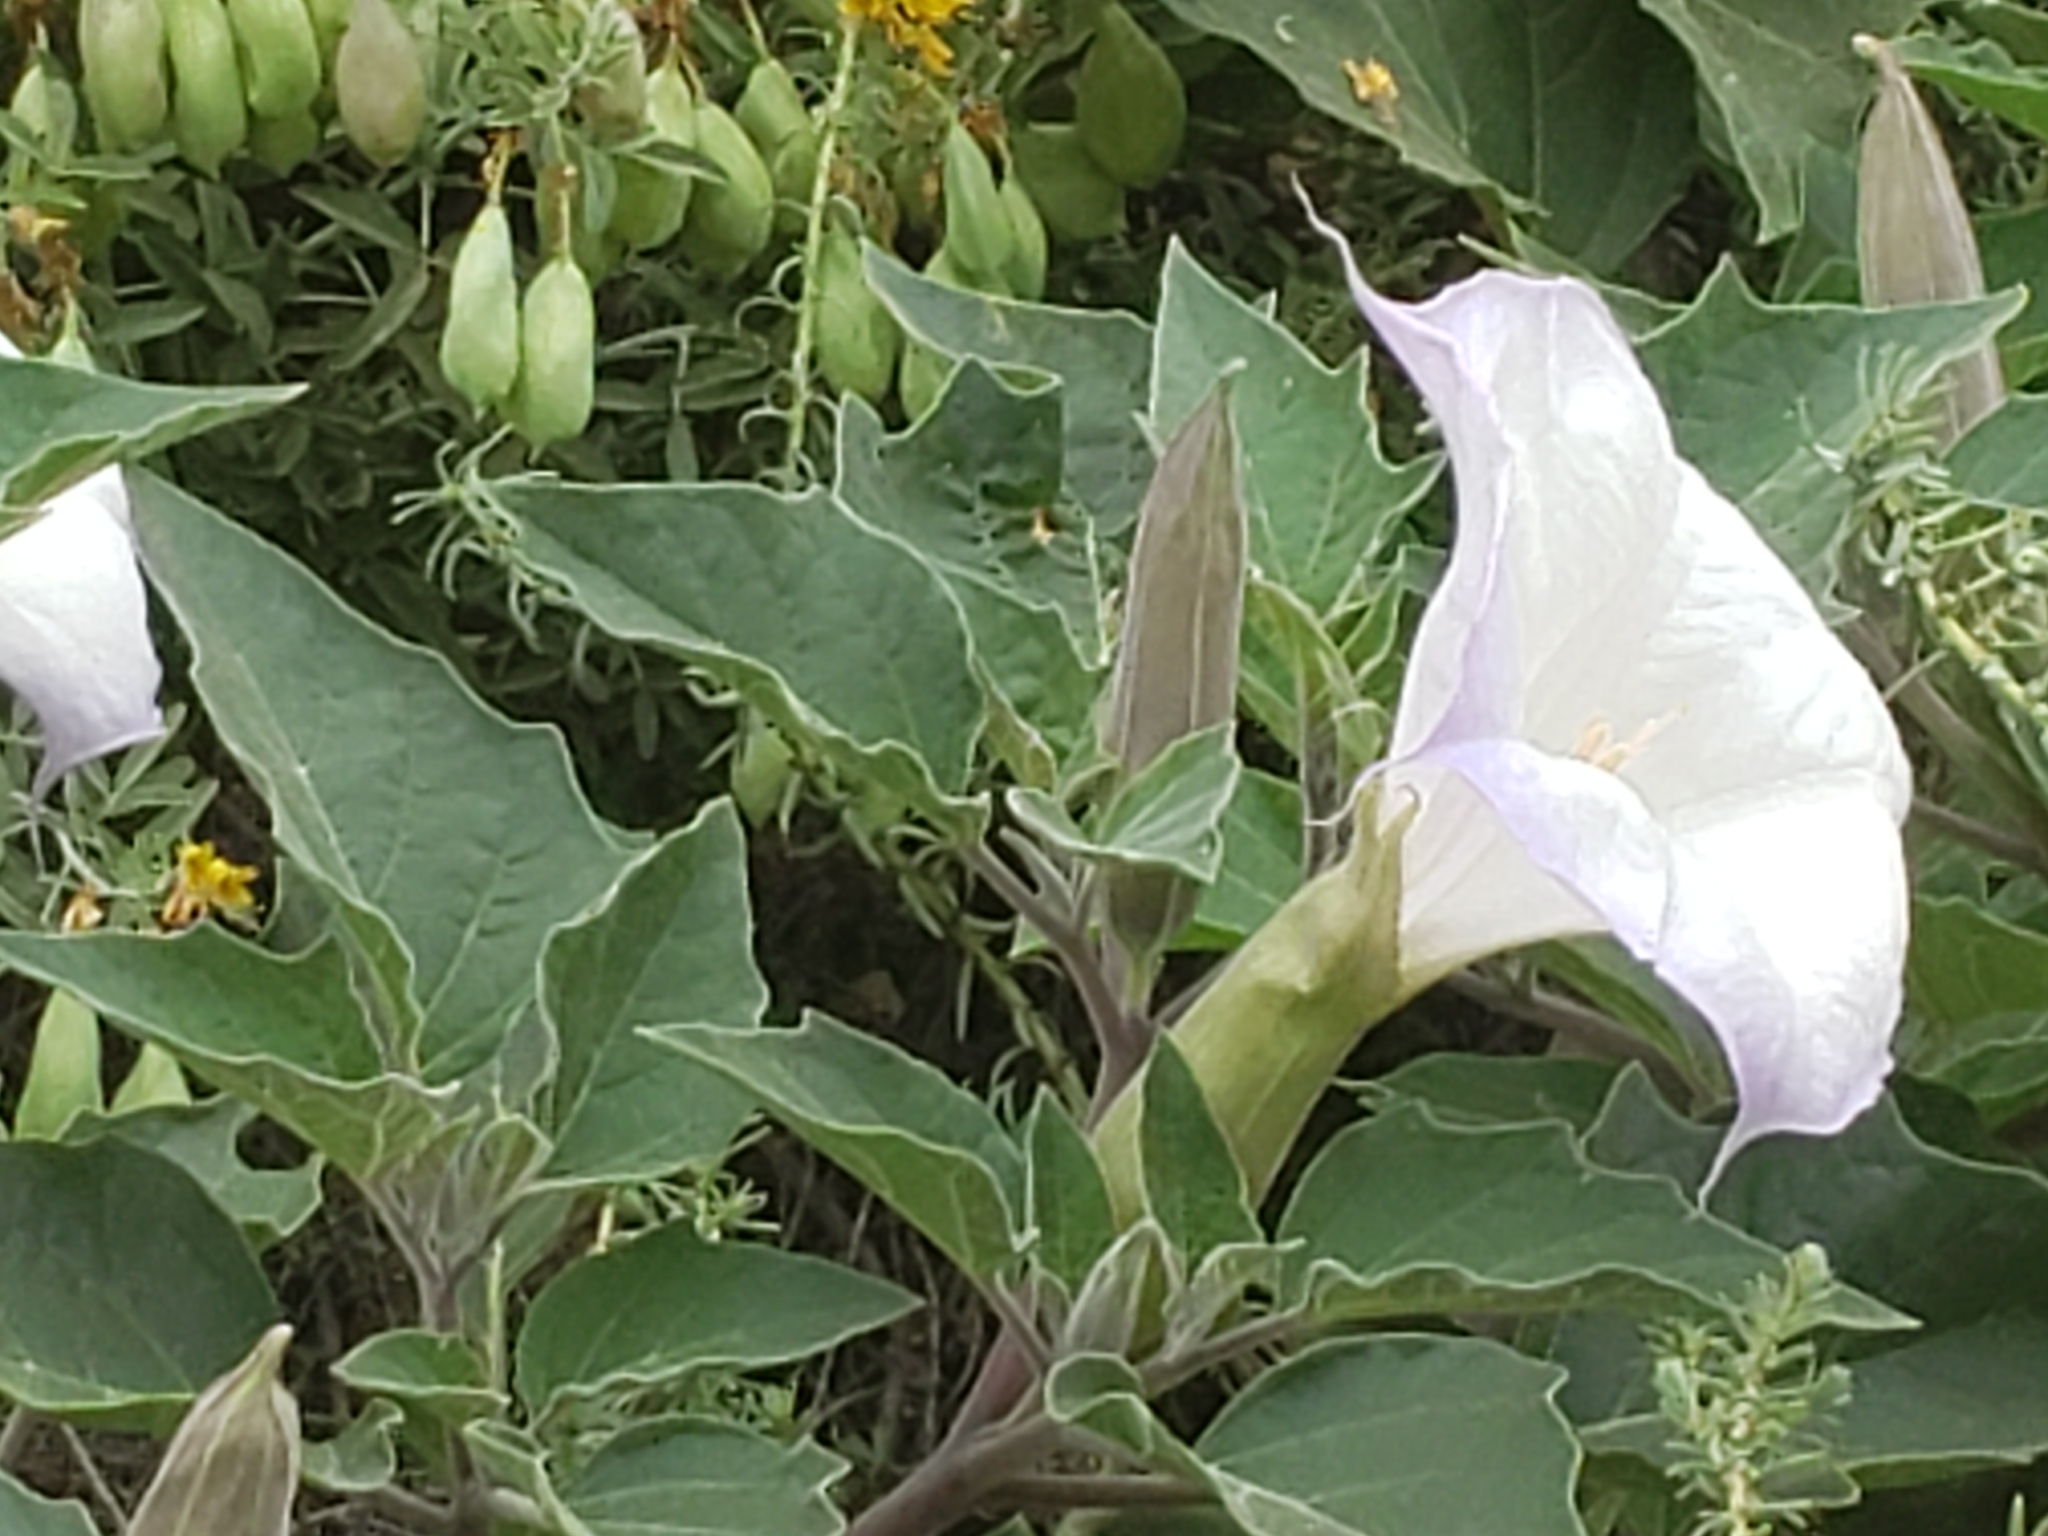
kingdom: Plantae
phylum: Tracheophyta
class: Magnoliopsida
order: Solanales
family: Solanaceae
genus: Datura
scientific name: Datura wrightii
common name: Sacred thorn-apple
